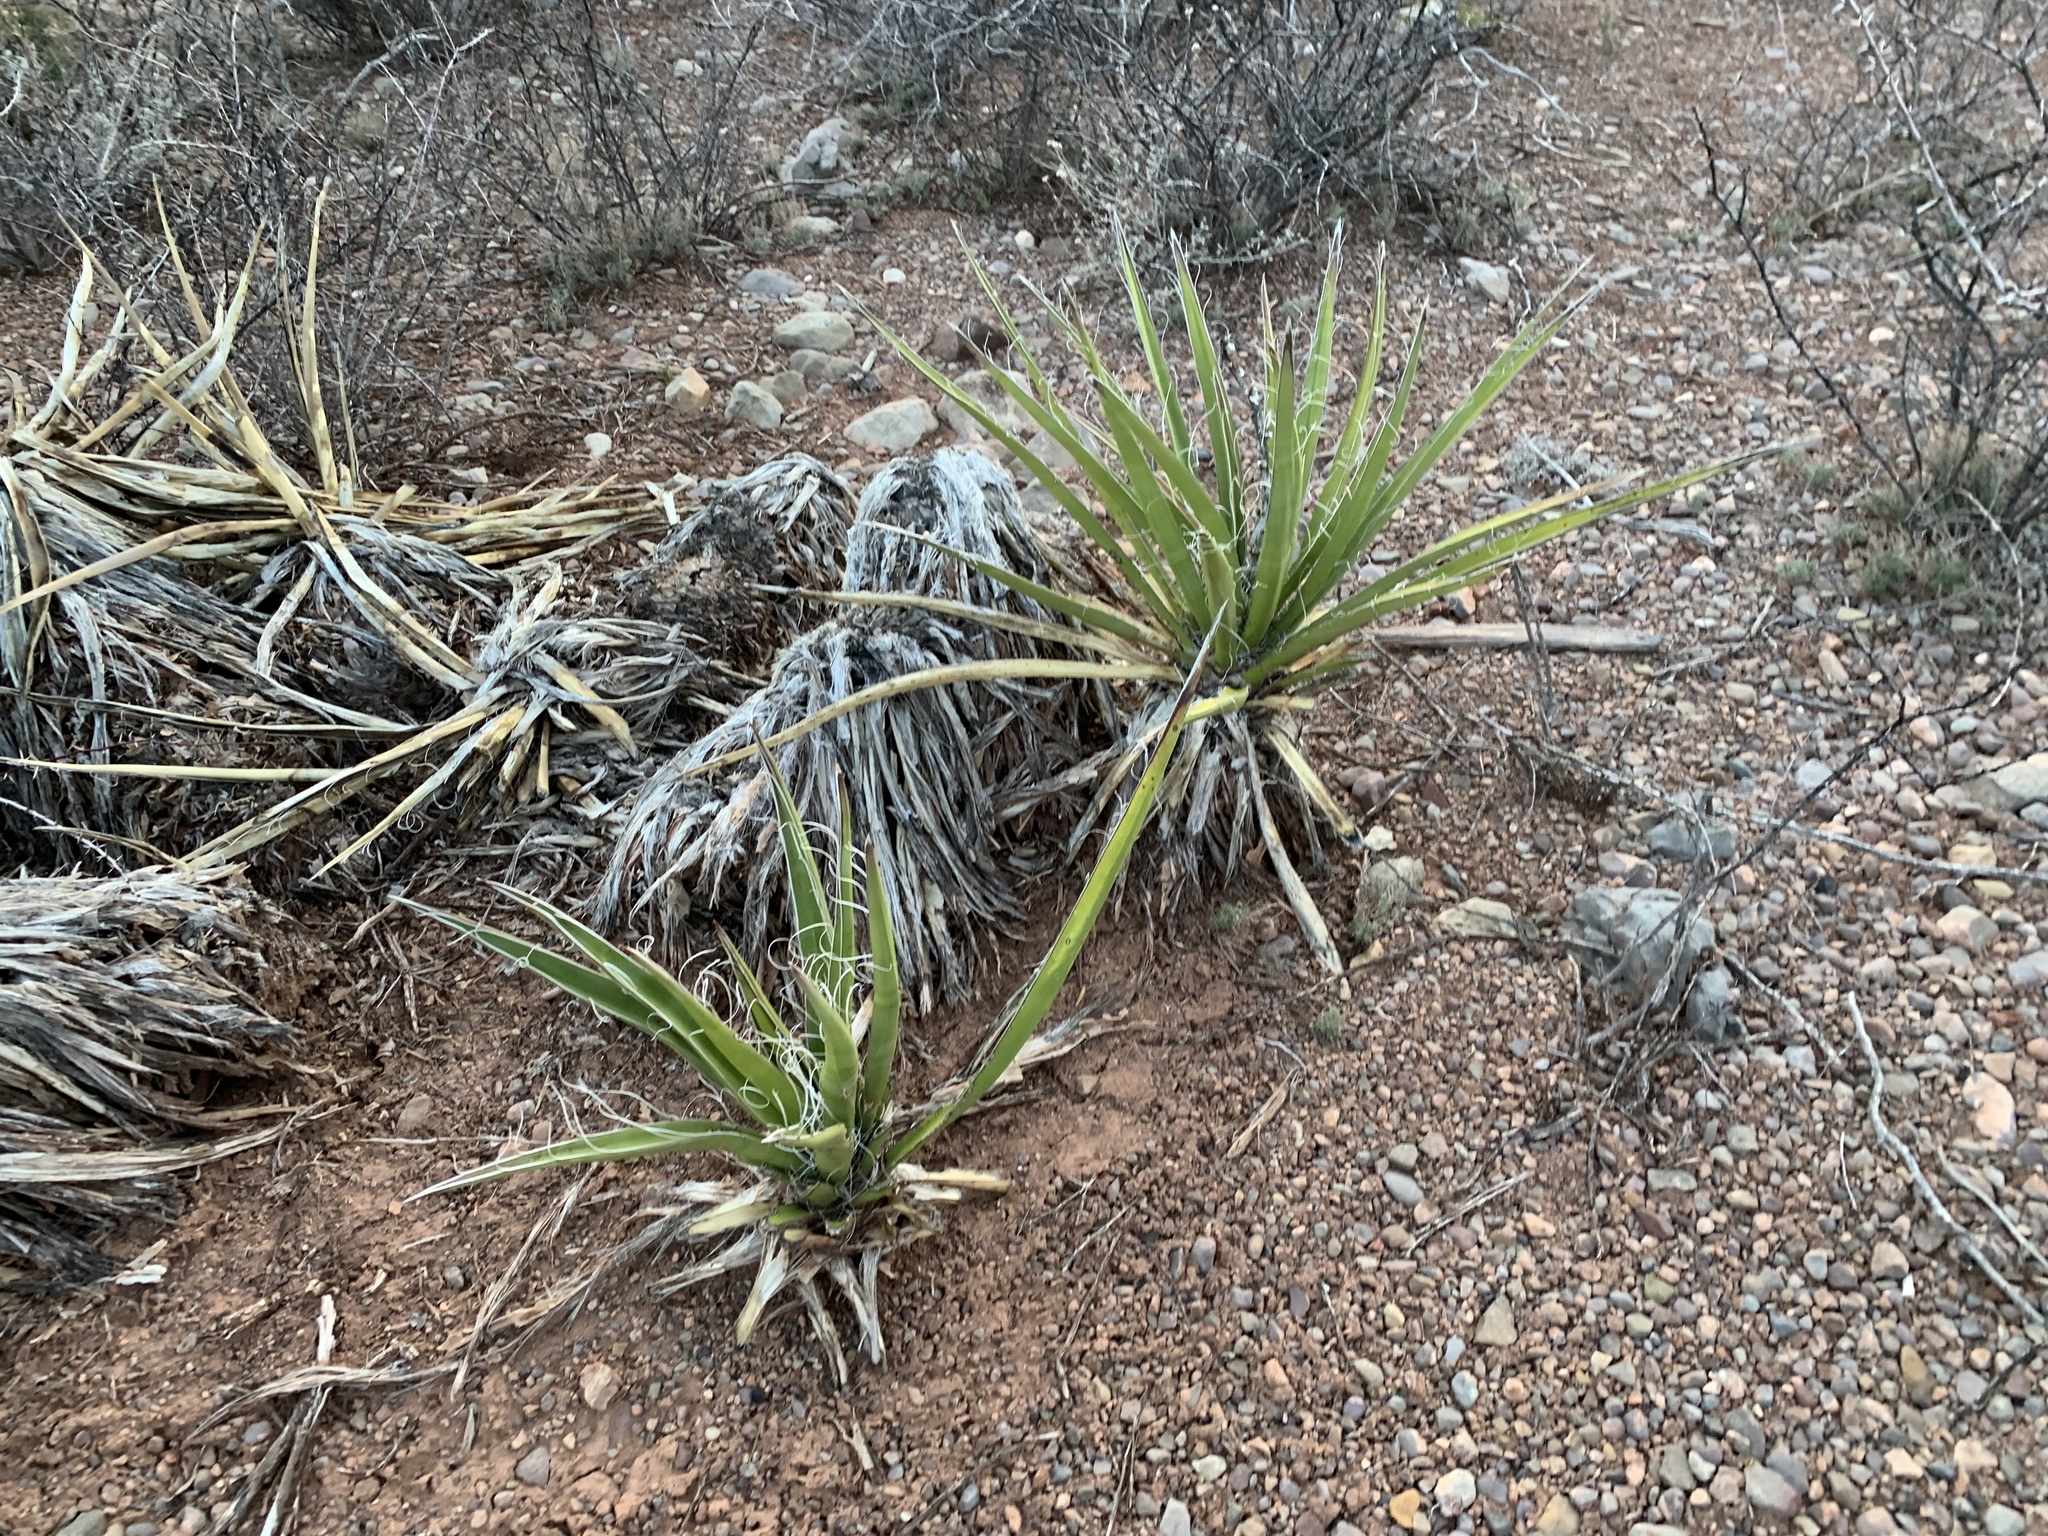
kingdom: Plantae
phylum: Tracheophyta
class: Liliopsida
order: Asparagales
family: Asparagaceae
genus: Yucca
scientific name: Yucca baccata
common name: Banana yucca
